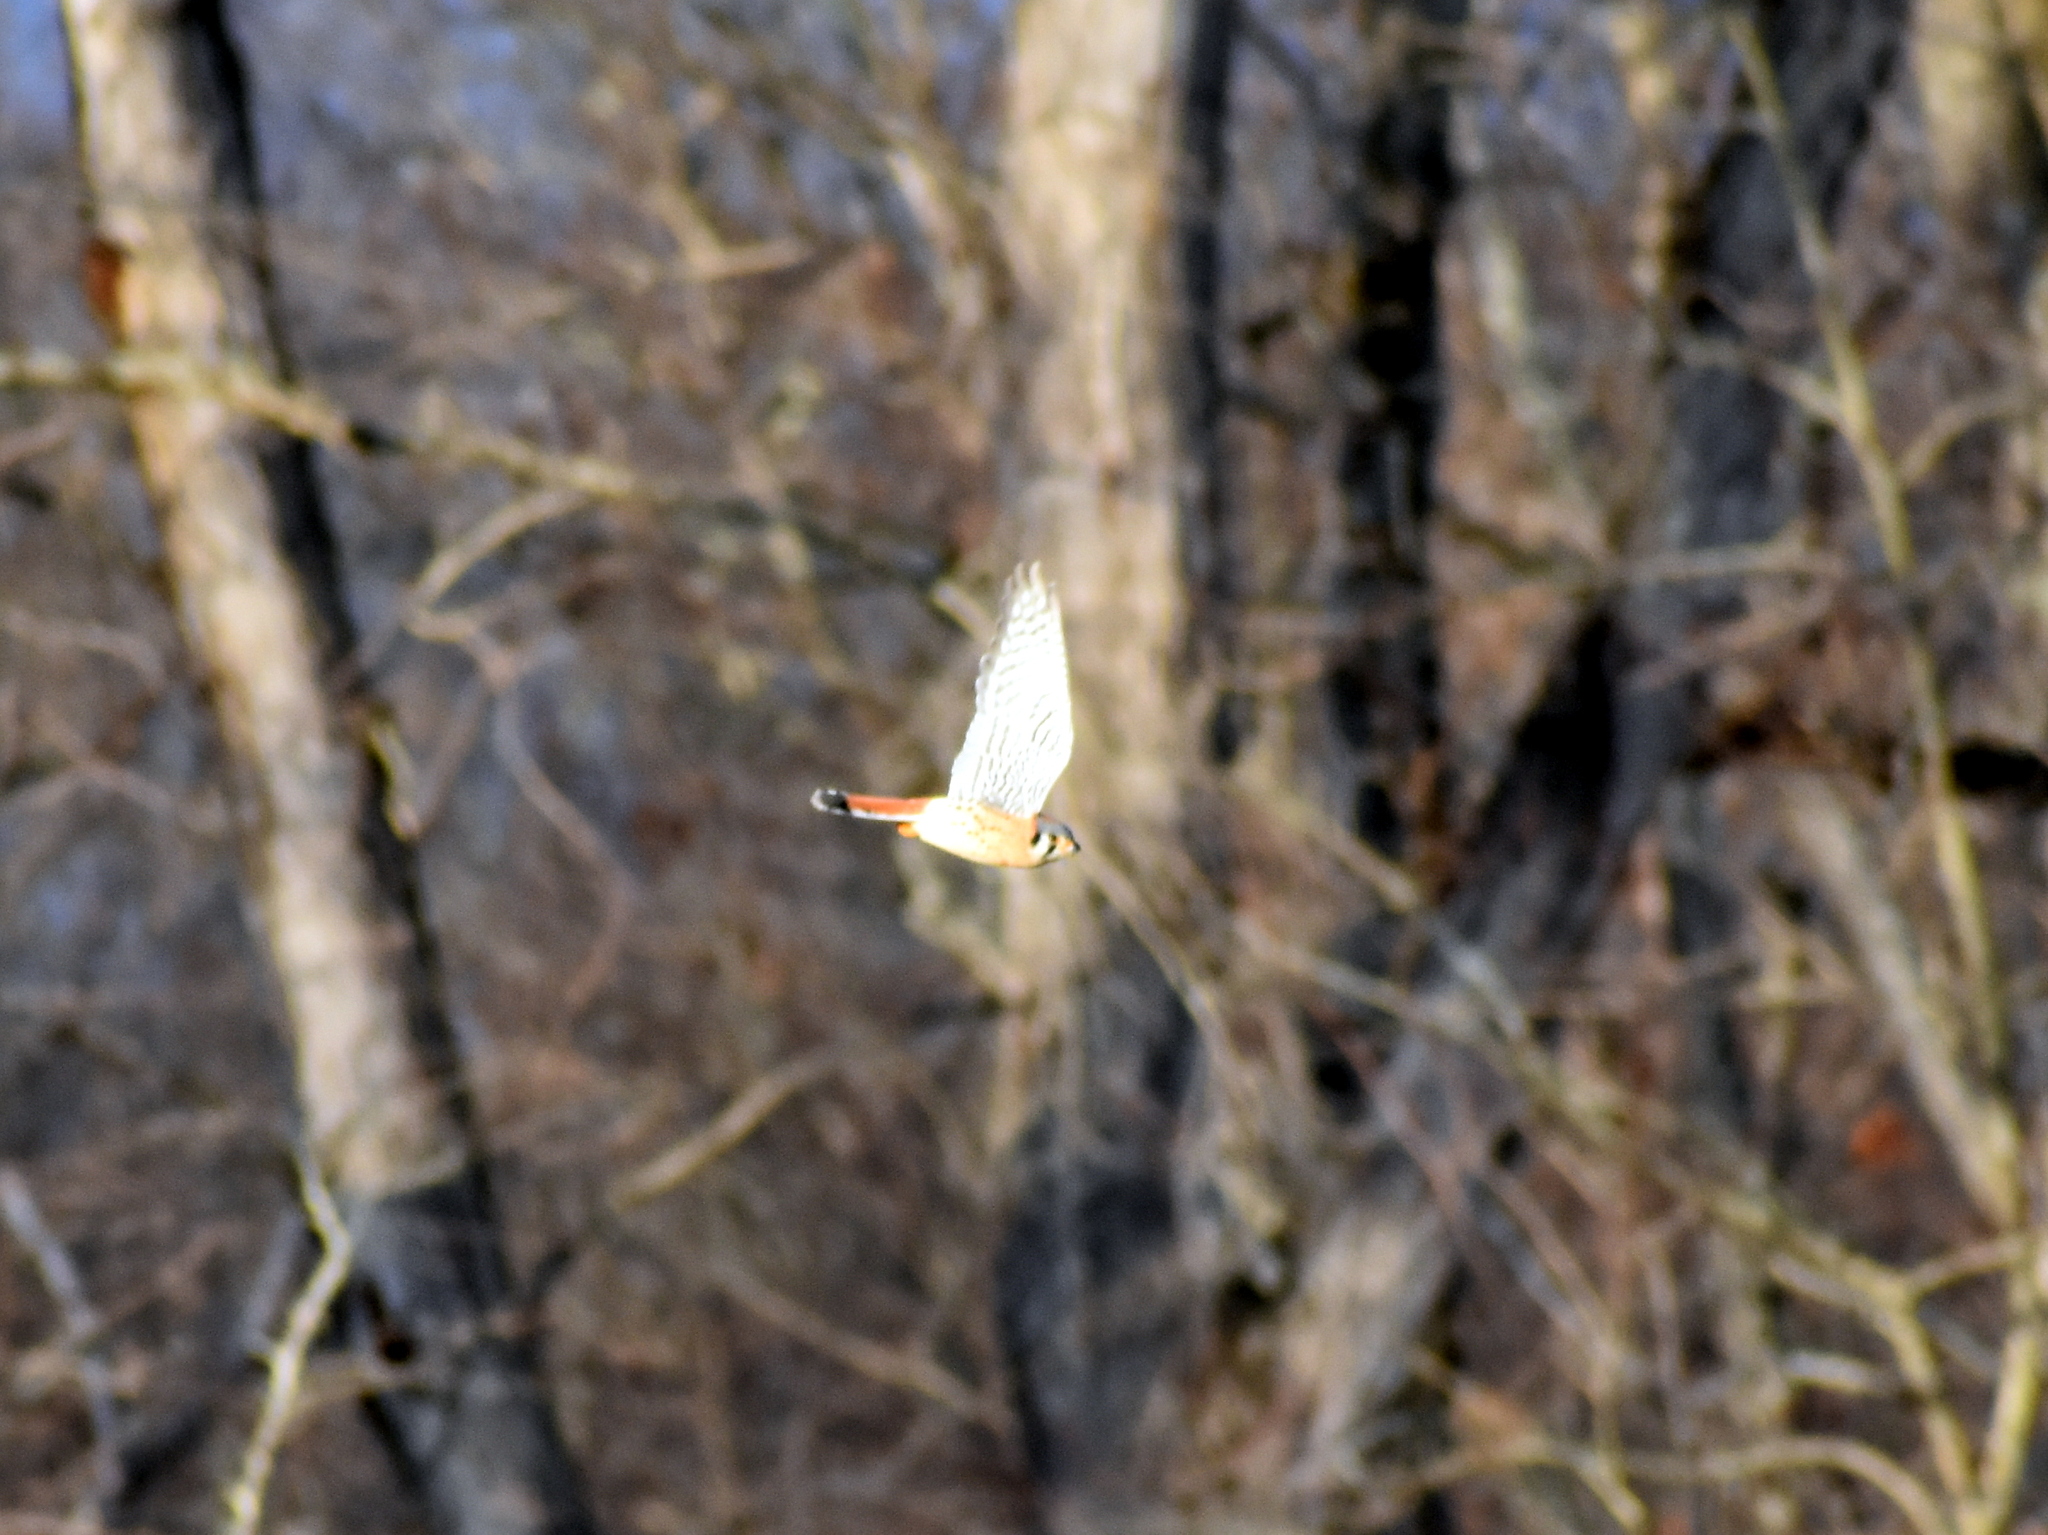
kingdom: Animalia
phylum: Chordata
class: Aves
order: Falconiformes
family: Falconidae
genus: Falco
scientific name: Falco sparverius
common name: American kestrel
